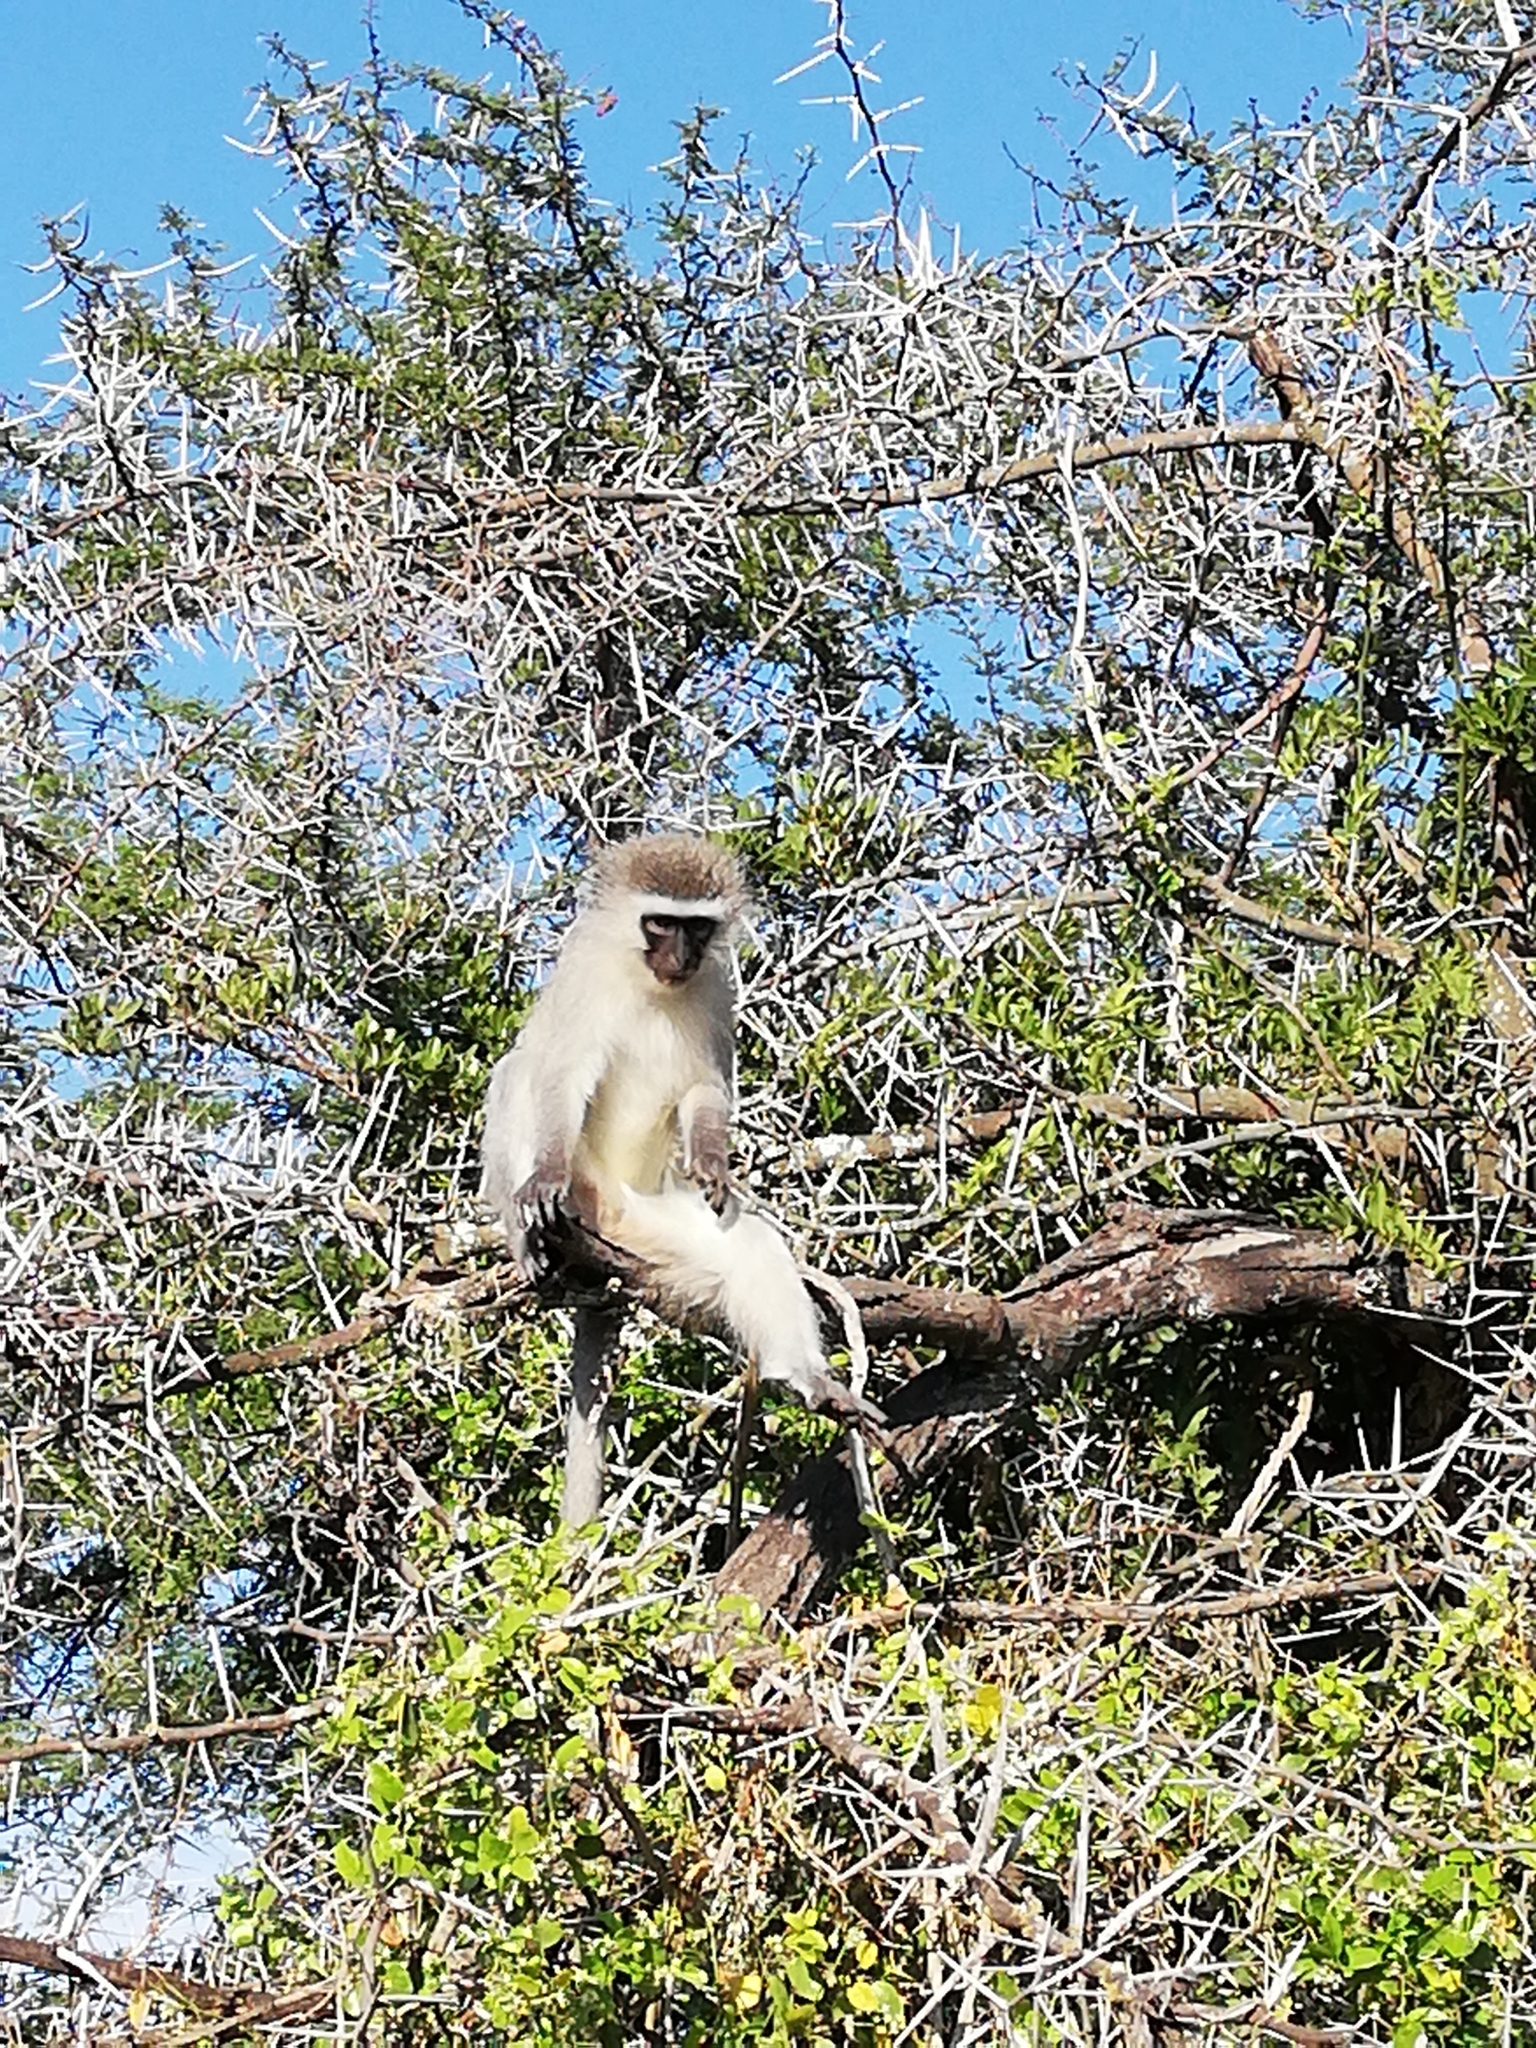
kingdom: Animalia
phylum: Chordata
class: Mammalia
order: Primates
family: Cercopithecidae
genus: Chlorocebus
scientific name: Chlorocebus pygerythrus
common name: Vervet monkey
